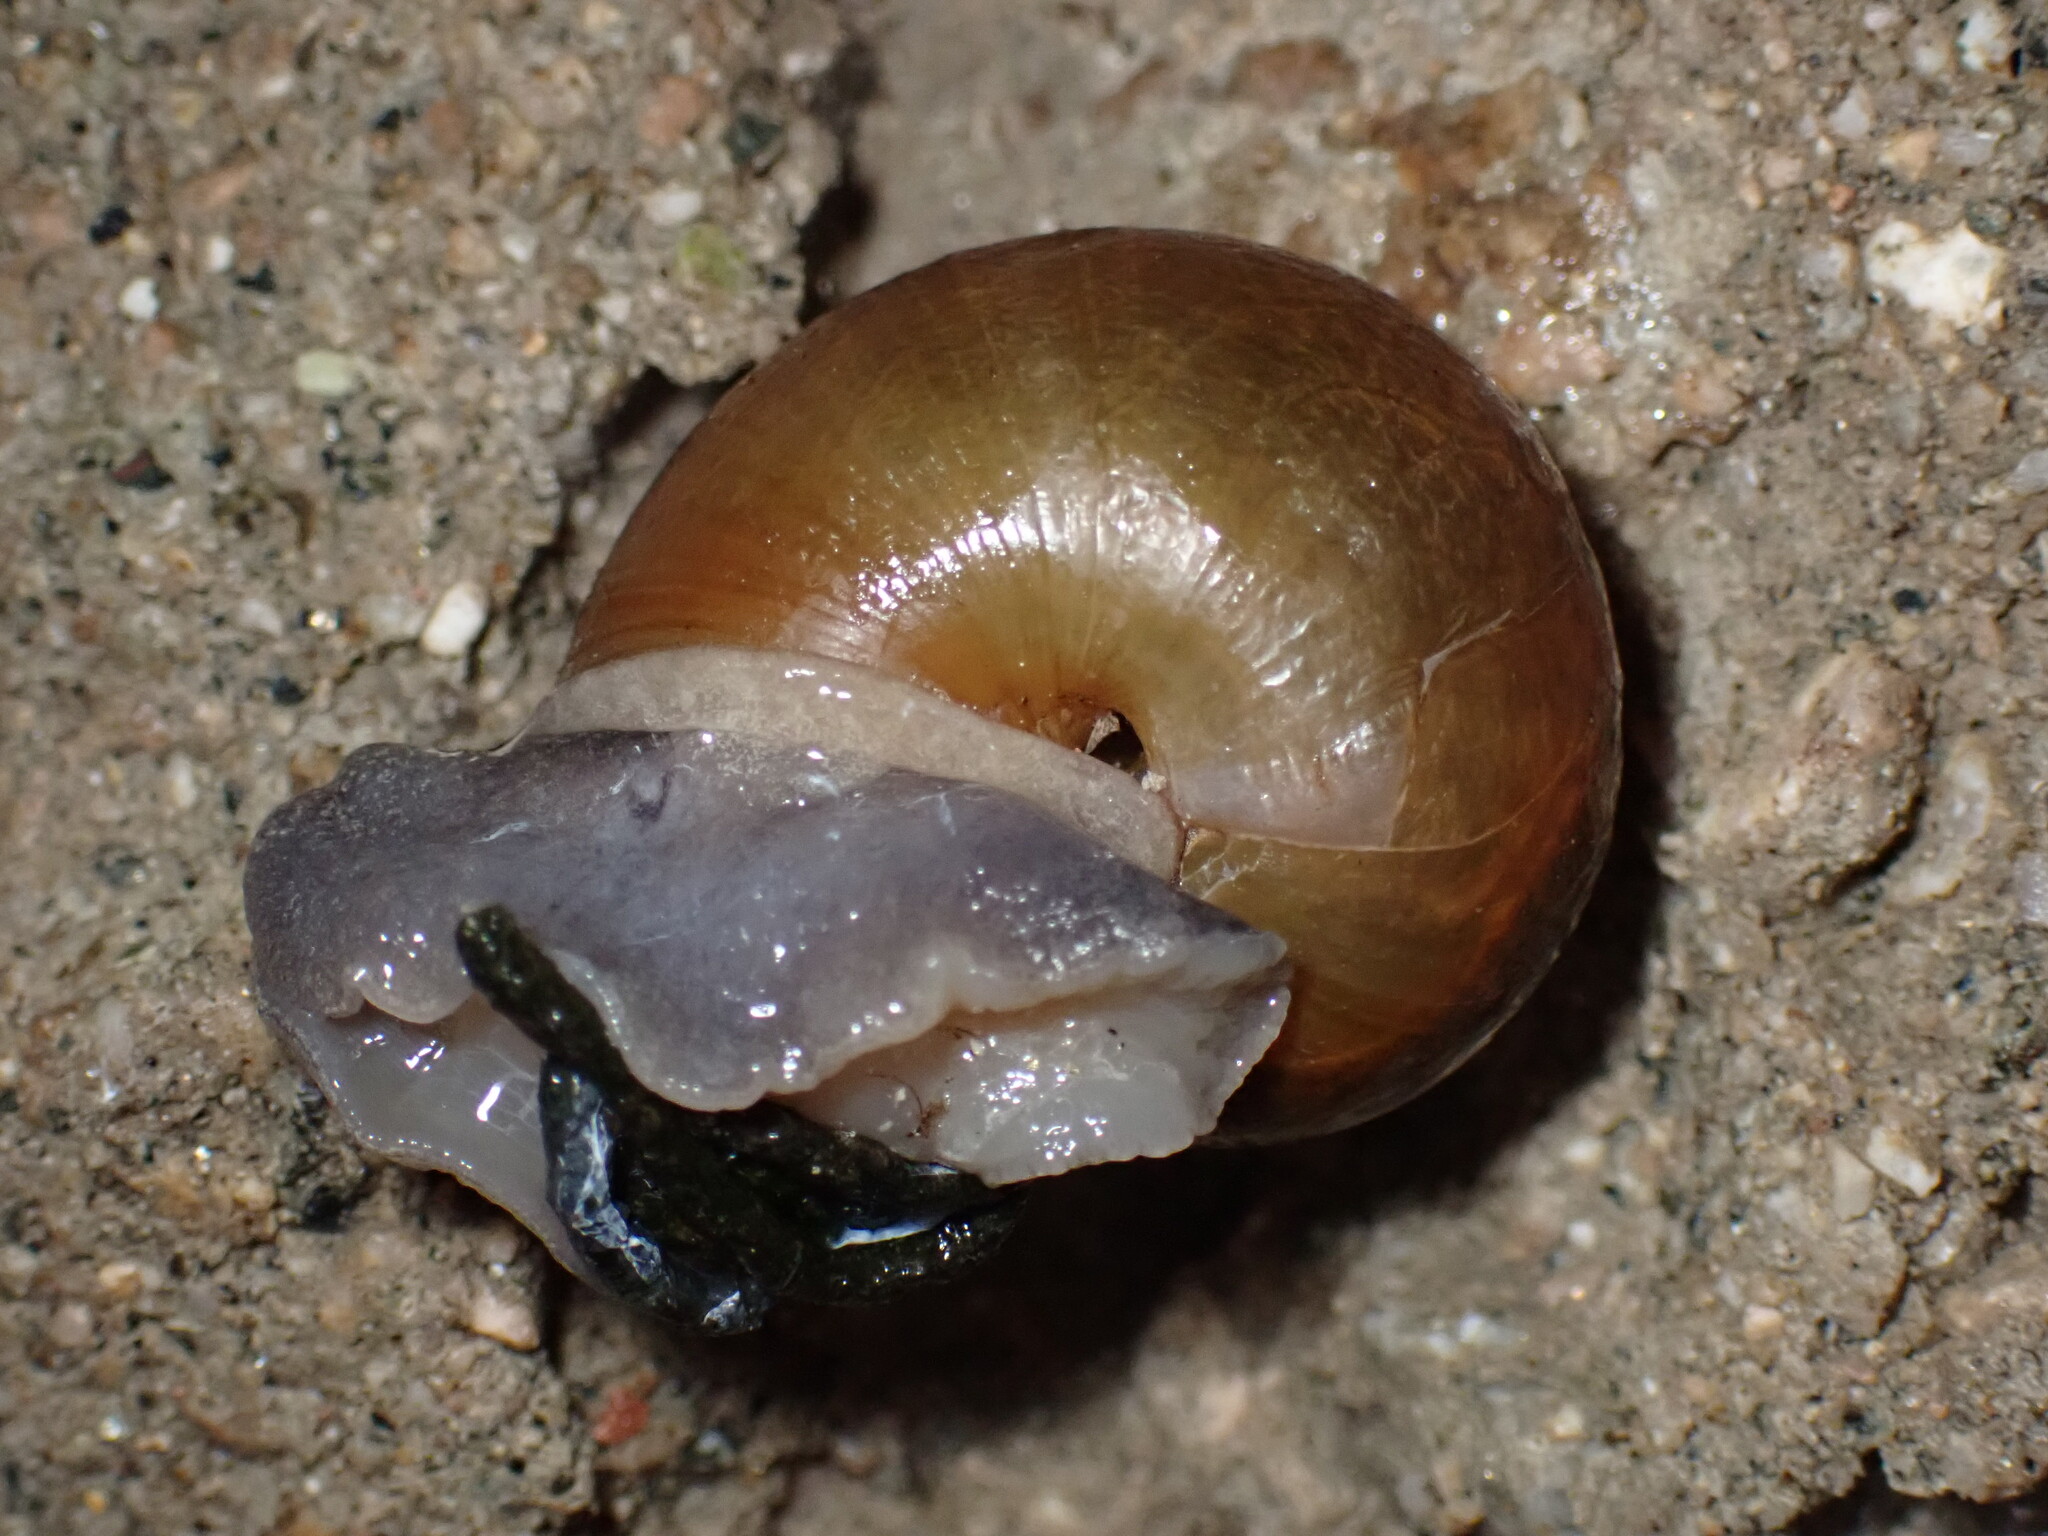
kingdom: Animalia
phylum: Mollusca
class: Gastropoda
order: Stylommatophora
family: Xanthonychidae
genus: Helminthoglypta
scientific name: Helminthoglypta tudiculata
